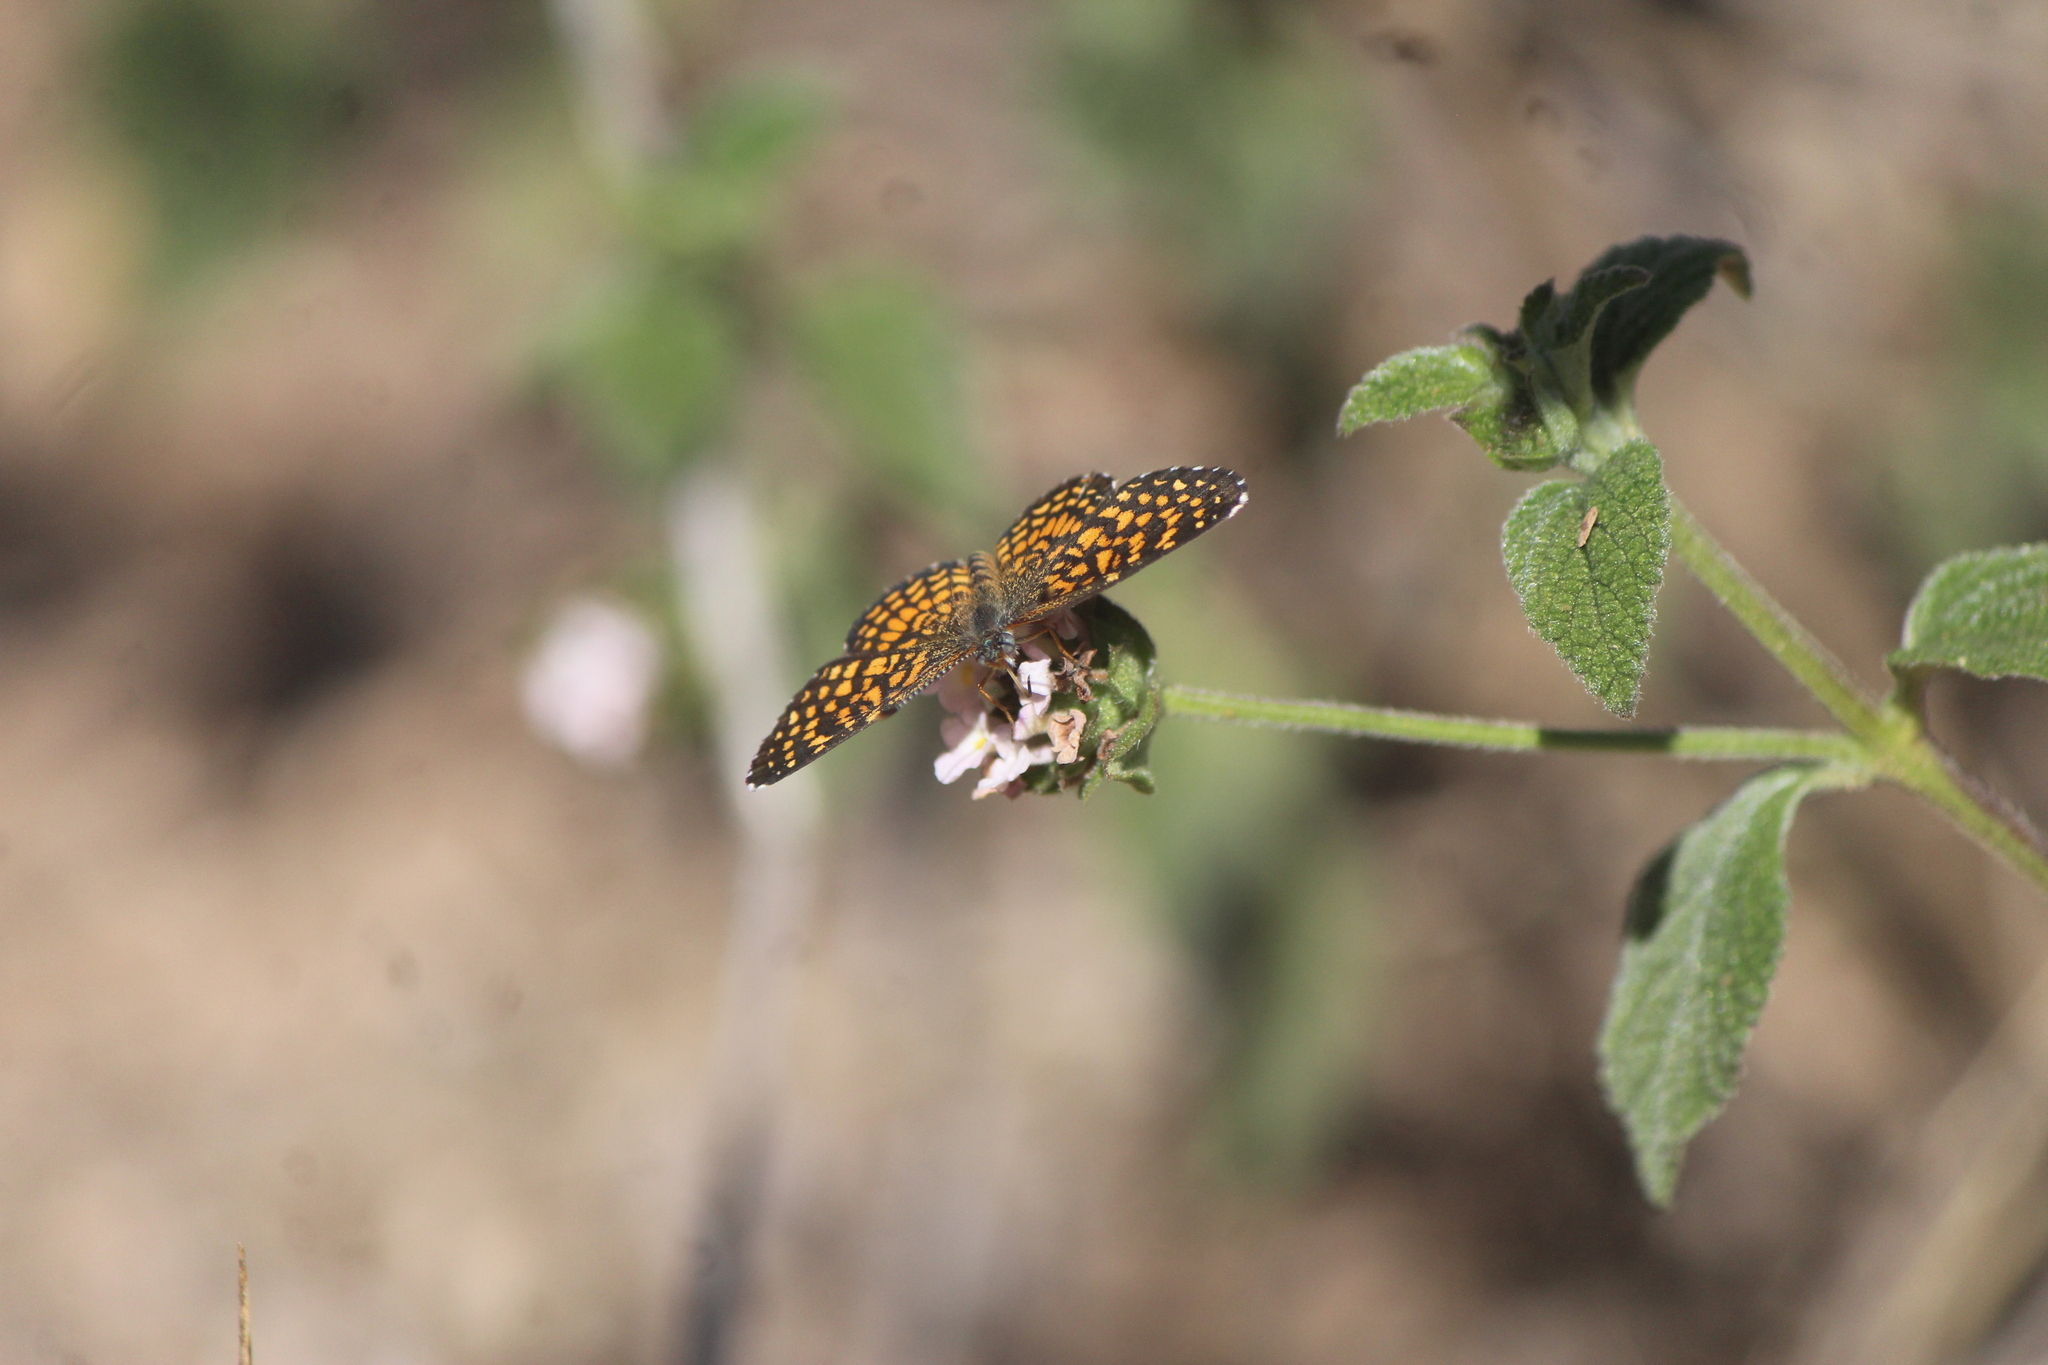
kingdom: Animalia
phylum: Arthropoda
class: Insecta
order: Lepidoptera
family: Nymphalidae
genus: Texola
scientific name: Texola elada
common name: Elada checkerspot
